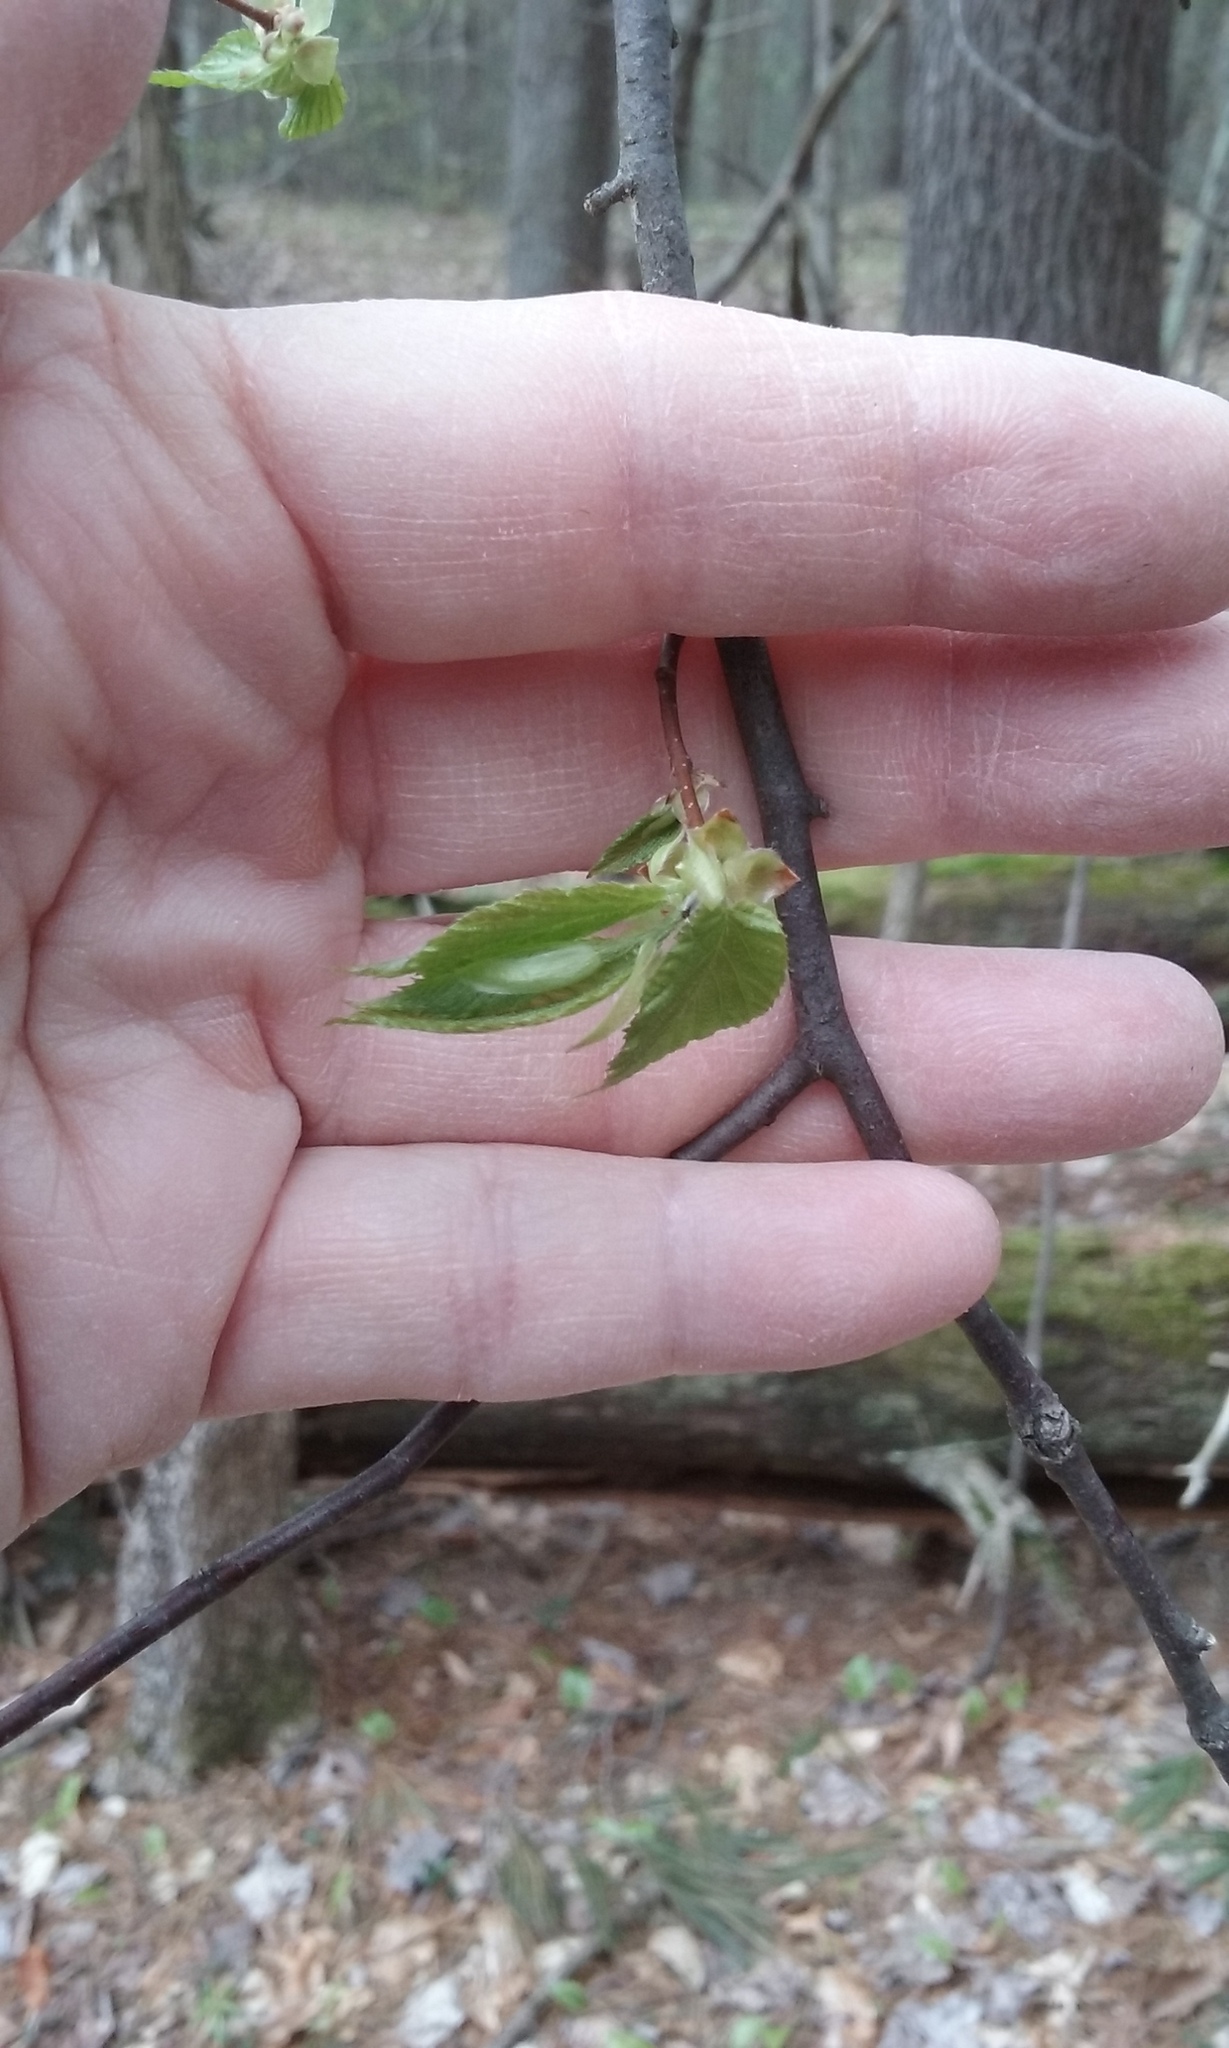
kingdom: Plantae
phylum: Tracheophyta
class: Magnoliopsida
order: Fagales
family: Betulaceae
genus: Ostrya
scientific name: Ostrya virginiana
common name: Ironwood
